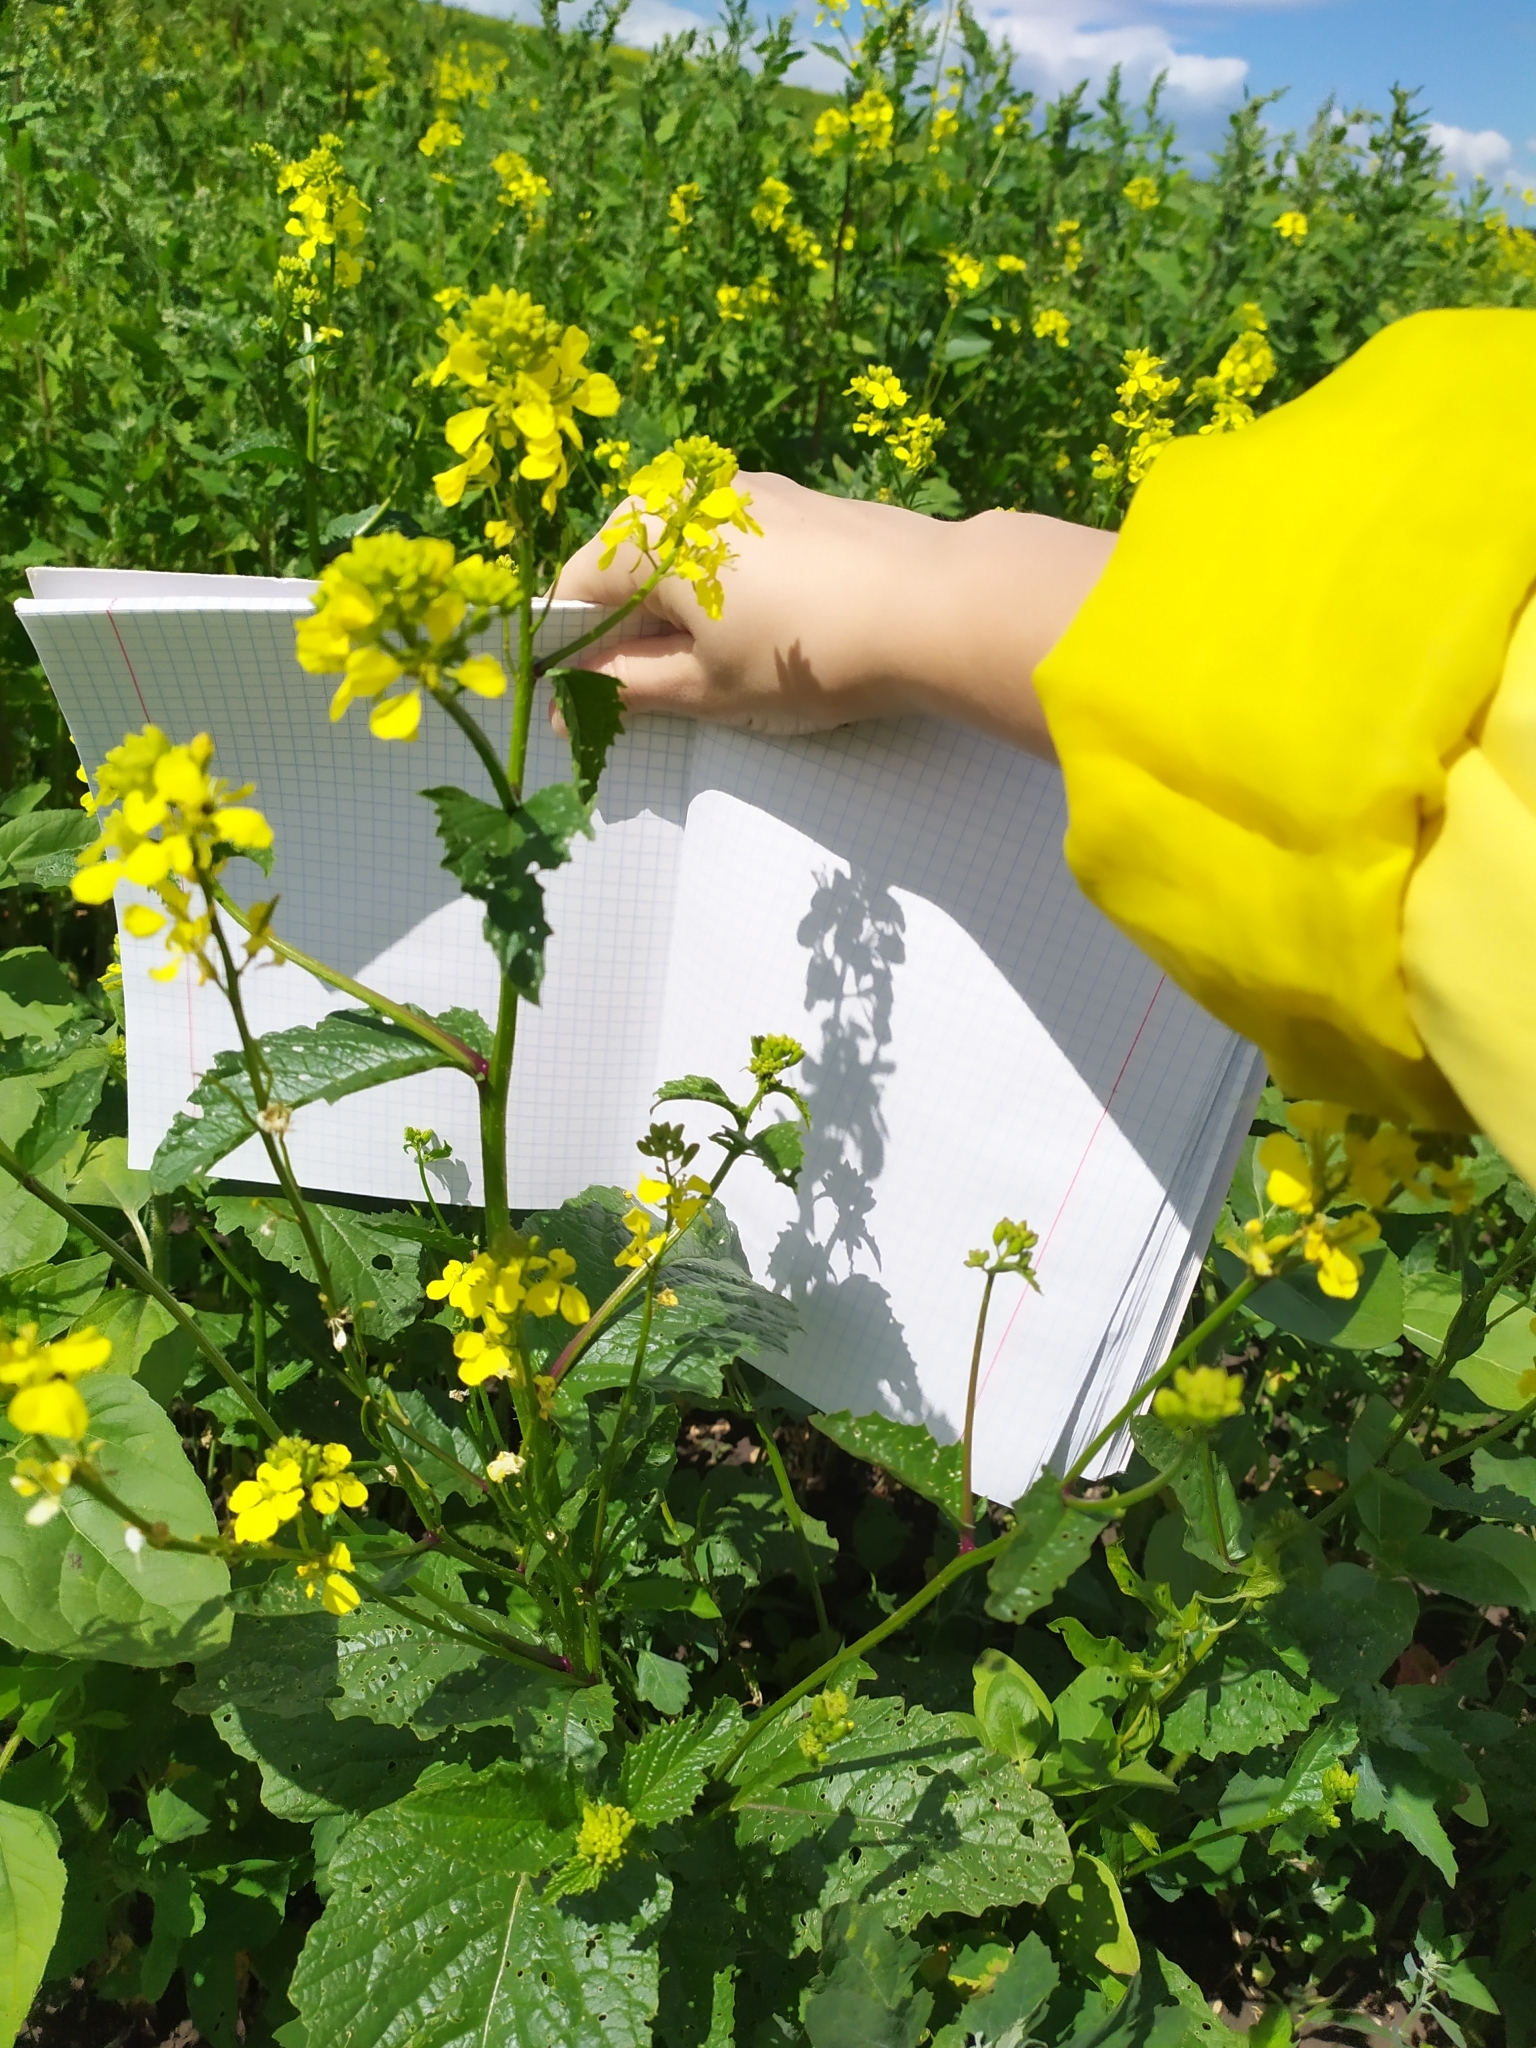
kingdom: Plantae
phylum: Tracheophyta
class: Magnoliopsida
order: Brassicales
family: Brassicaceae
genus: Sinapis
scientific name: Sinapis arvensis
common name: Charlock
